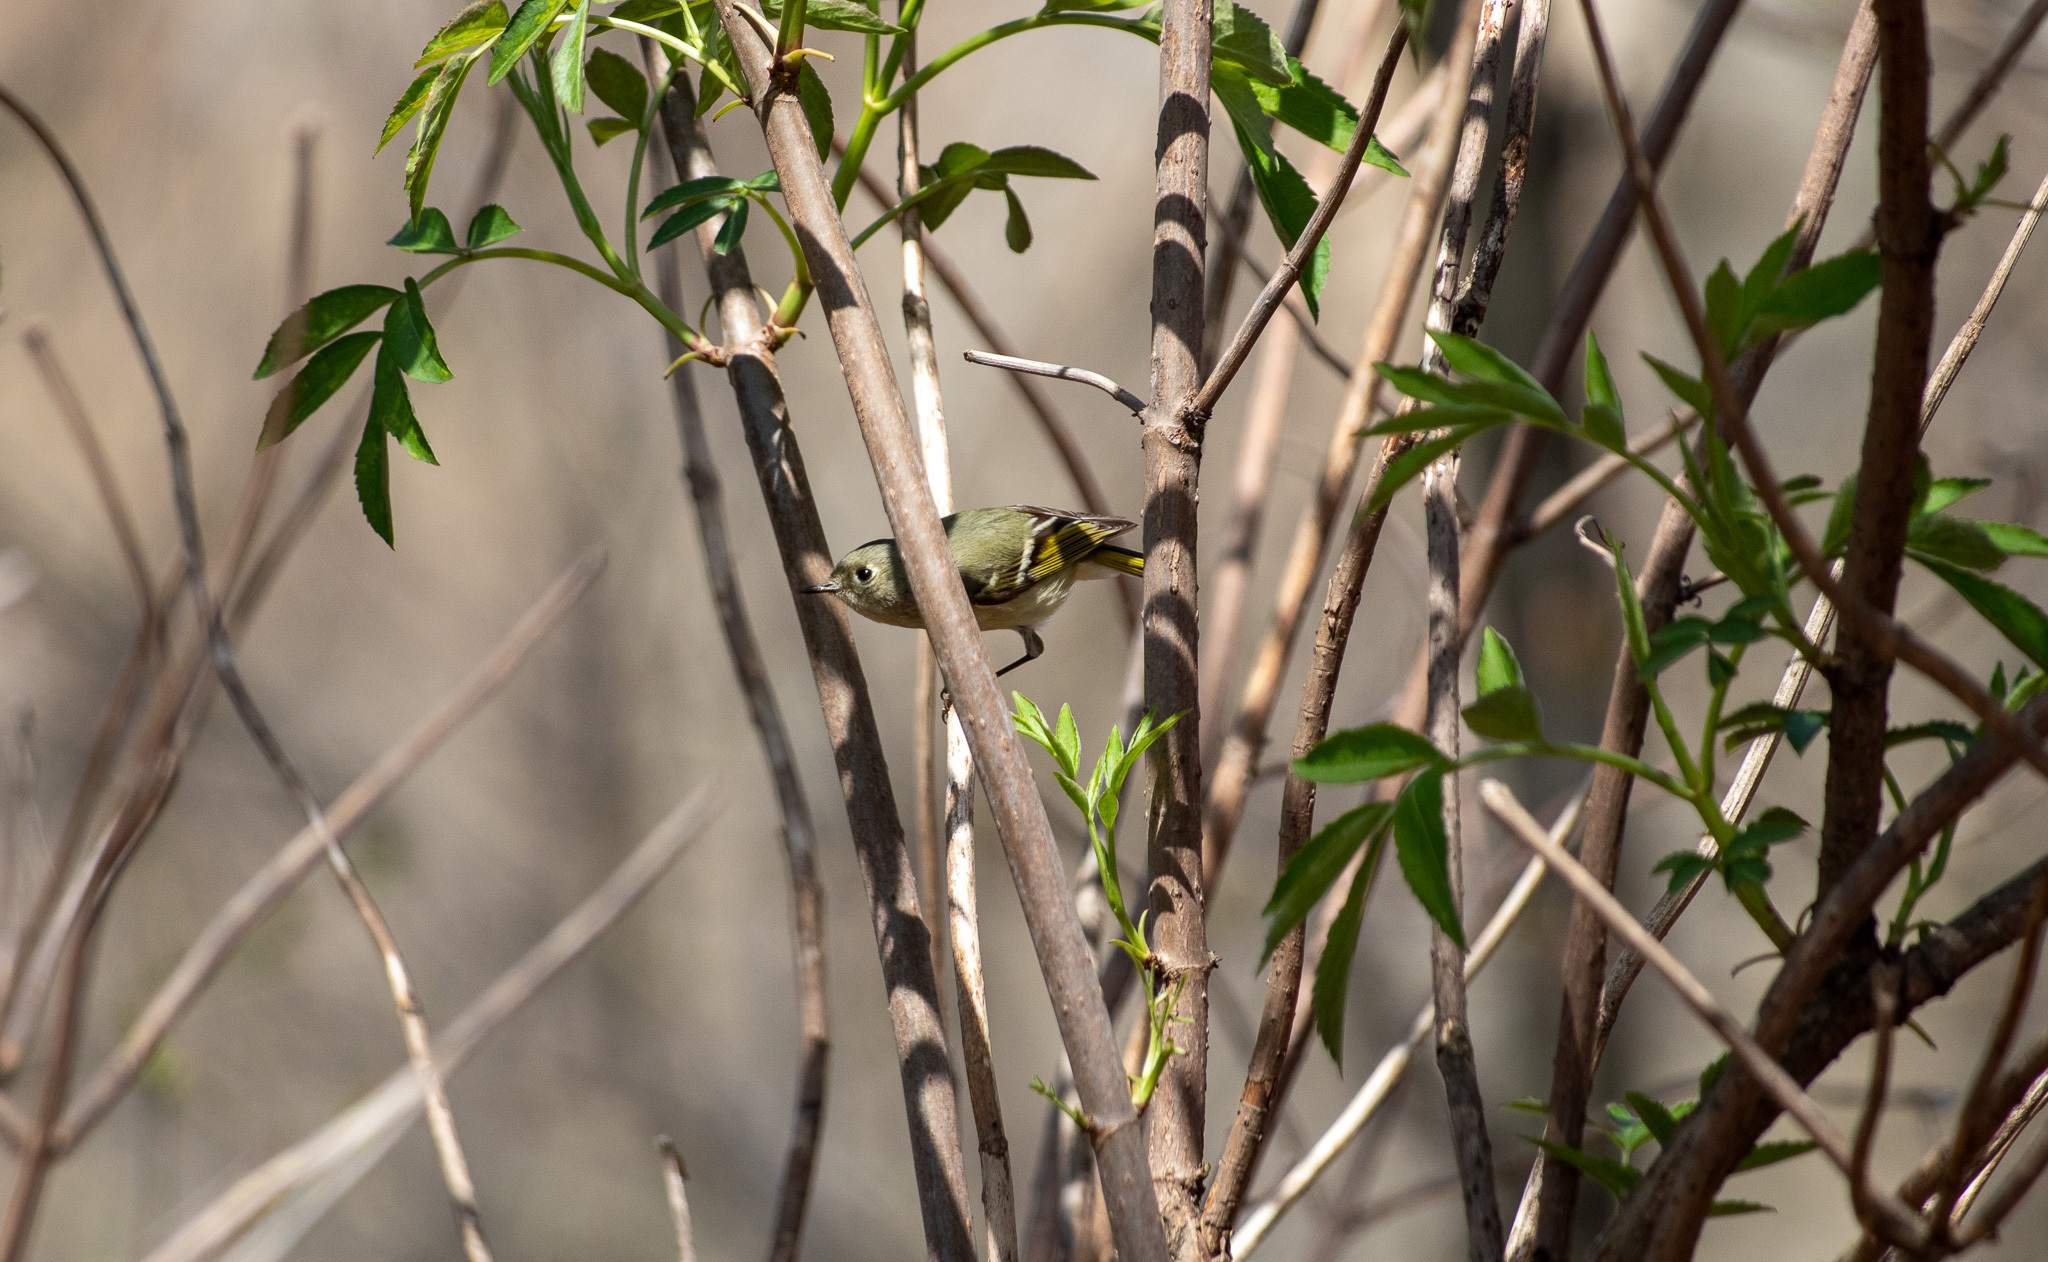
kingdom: Animalia
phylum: Chordata
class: Aves
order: Passeriformes
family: Regulidae
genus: Regulus
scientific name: Regulus calendula
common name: Ruby-crowned kinglet
